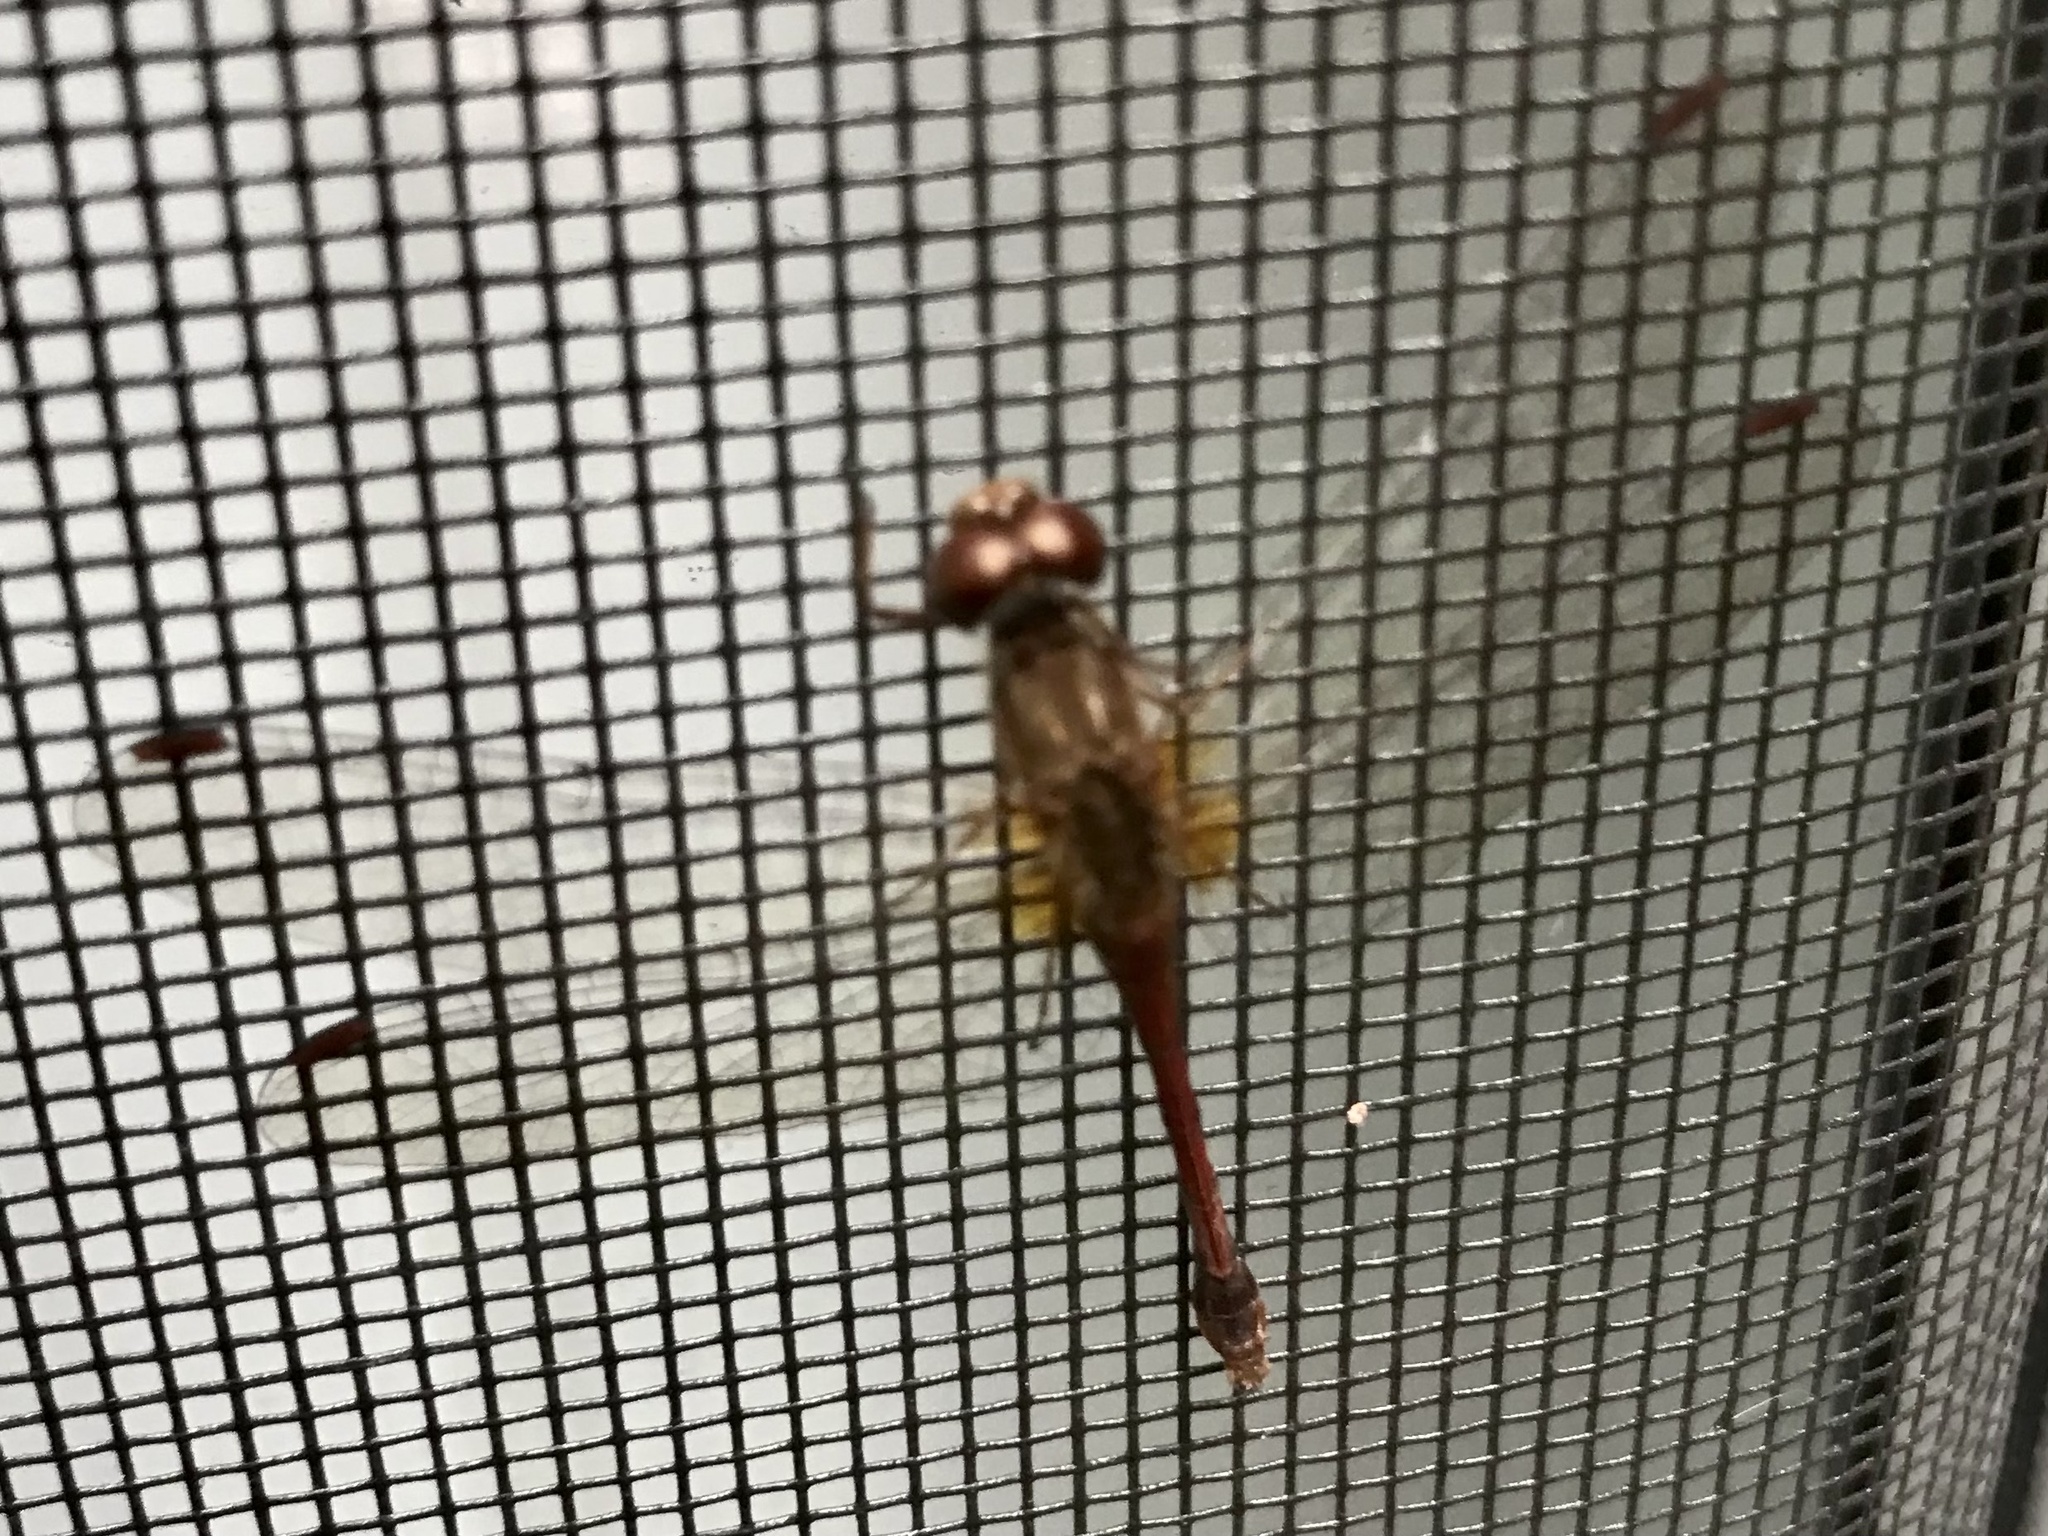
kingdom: Animalia
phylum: Arthropoda
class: Insecta
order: Odonata
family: Libellulidae
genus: Sympetrum
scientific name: Sympetrum vicinum
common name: Autumn meadowhawk
